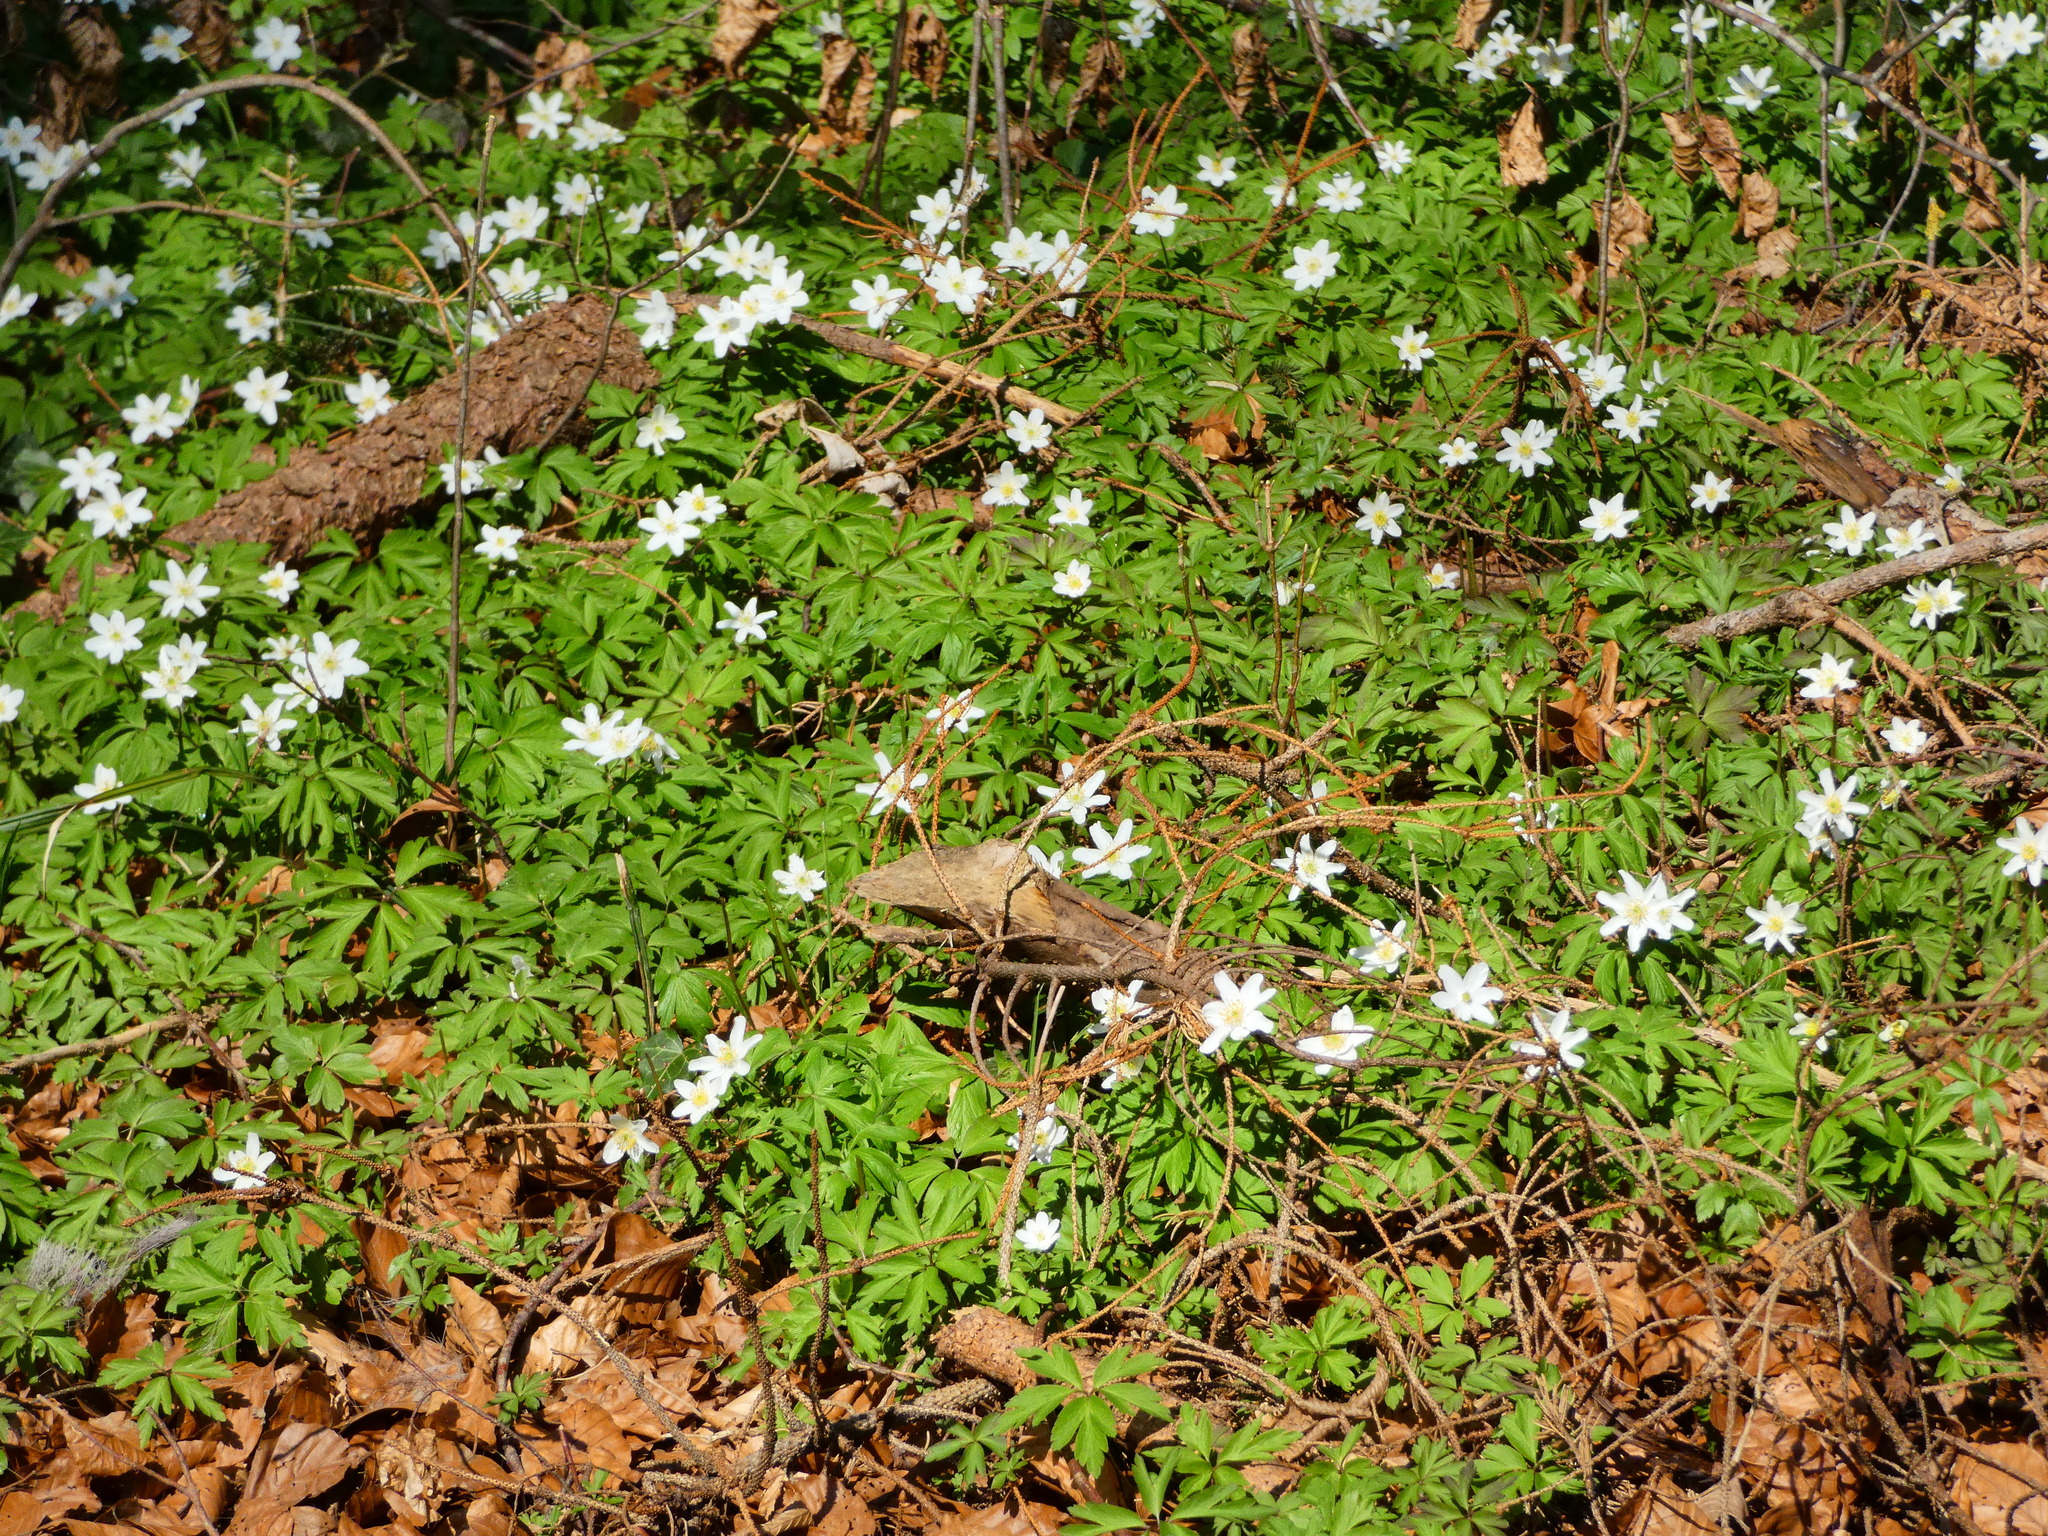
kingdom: Plantae
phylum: Tracheophyta
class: Magnoliopsida
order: Ranunculales
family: Ranunculaceae
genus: Anemone
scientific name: Anemone nemorosa
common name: Wood anemone
